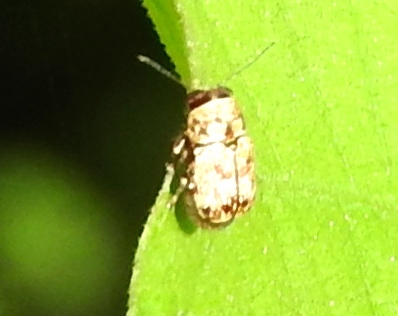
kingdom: Animalia
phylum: Arthropoda
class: Insecta
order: Coleoptera
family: Chrysomelidae
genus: Pachybrachis
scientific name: Pachybrachis
